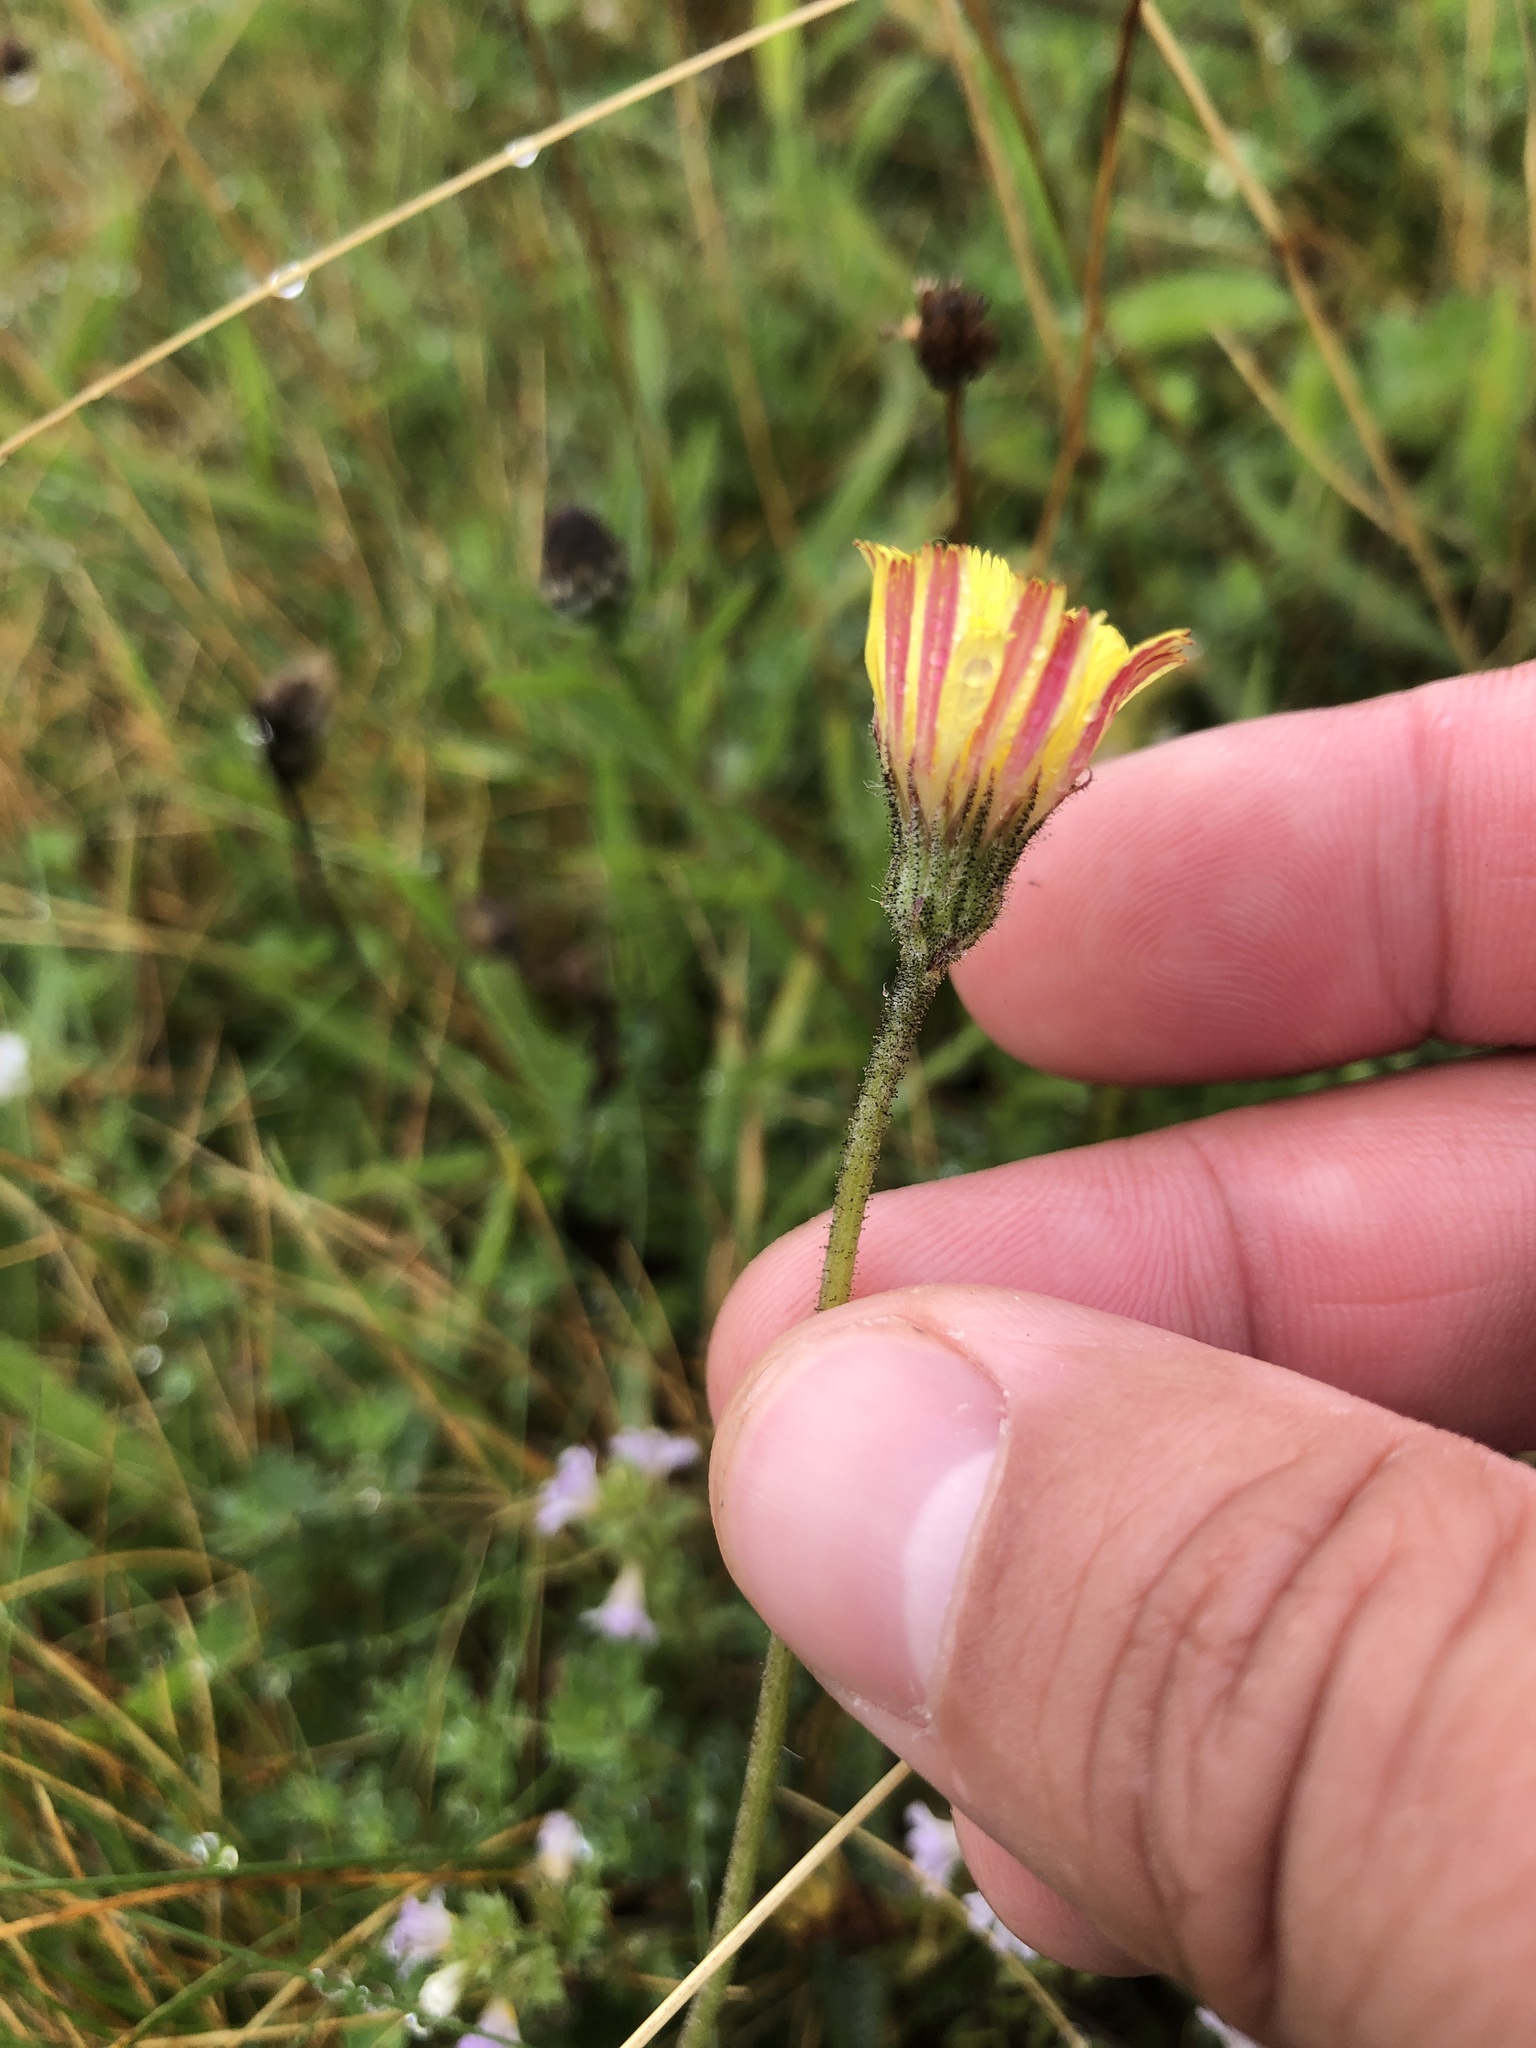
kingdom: Plantae
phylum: Tracheophyta
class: Magnoliopsida
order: Asterales
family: Asteraceae
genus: Crepis
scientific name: Crepis vesicaria
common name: Beaked hawksbeard
